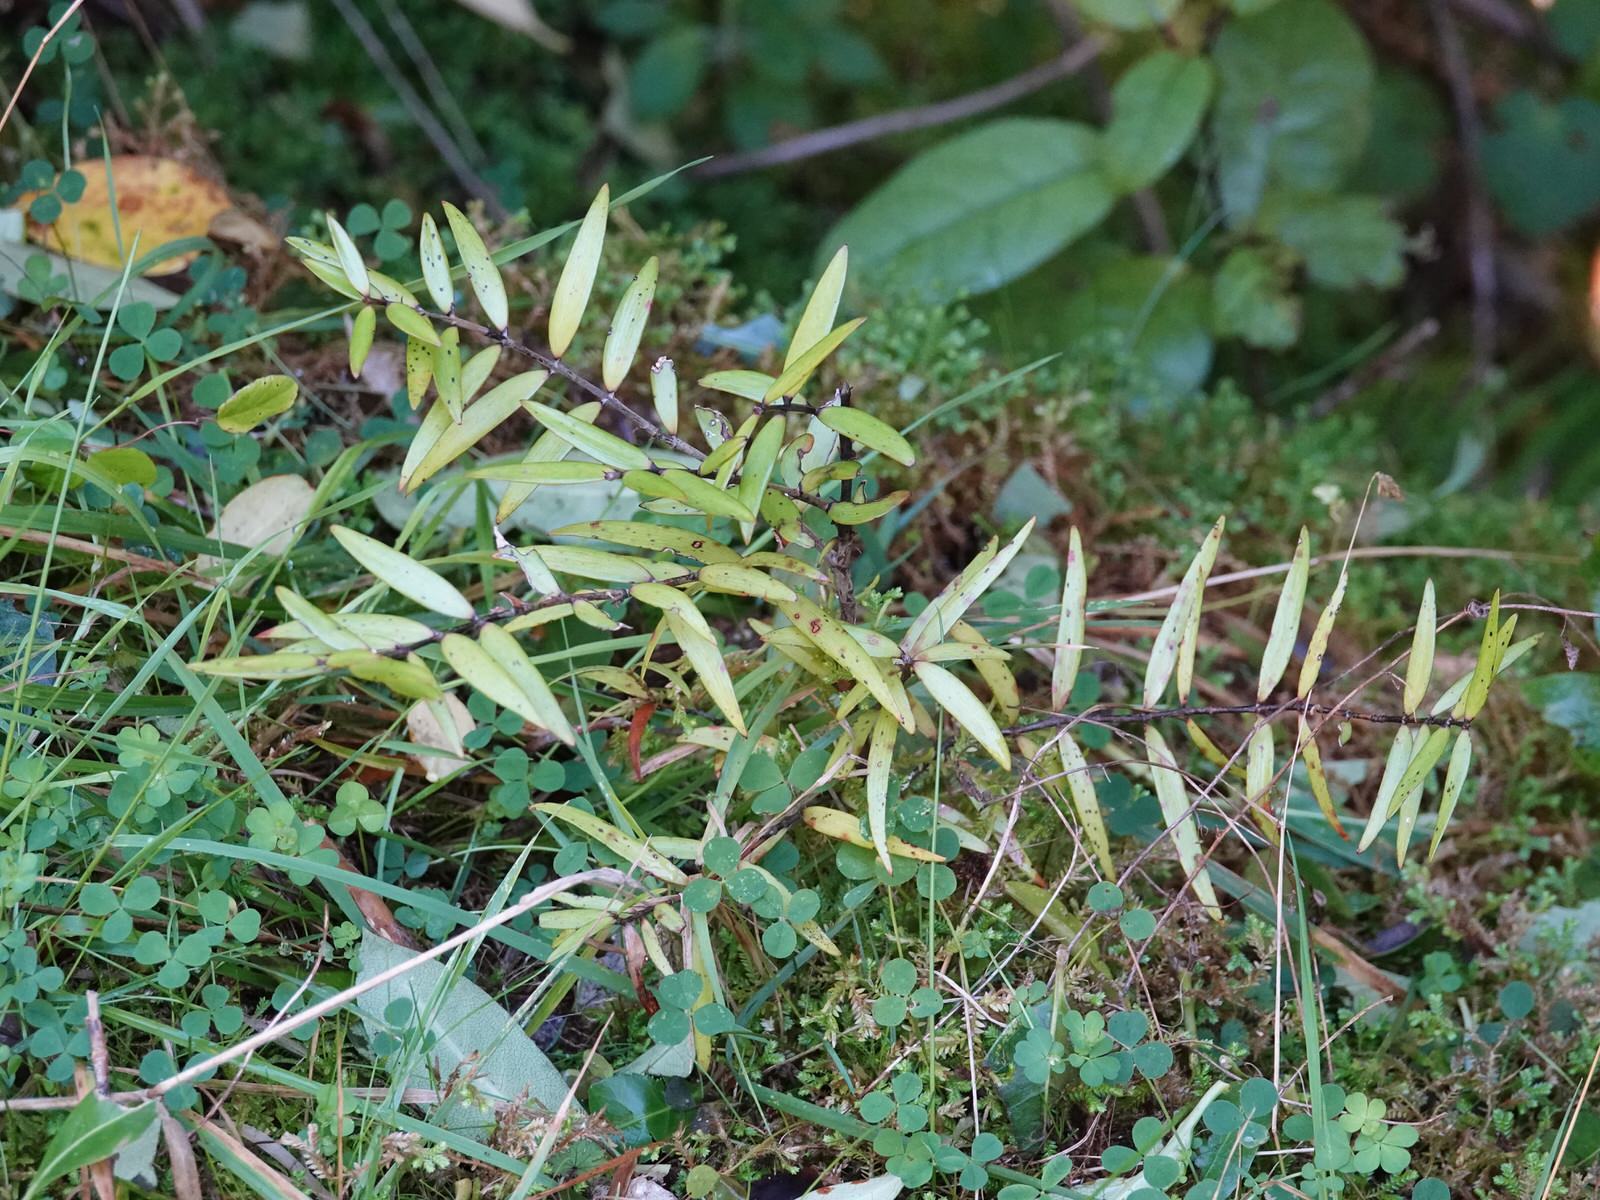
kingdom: Plantae
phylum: Tracheophyta
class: Pinopsida
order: Pinales
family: Araucariaceae
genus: Agathis
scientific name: Agathis australis
